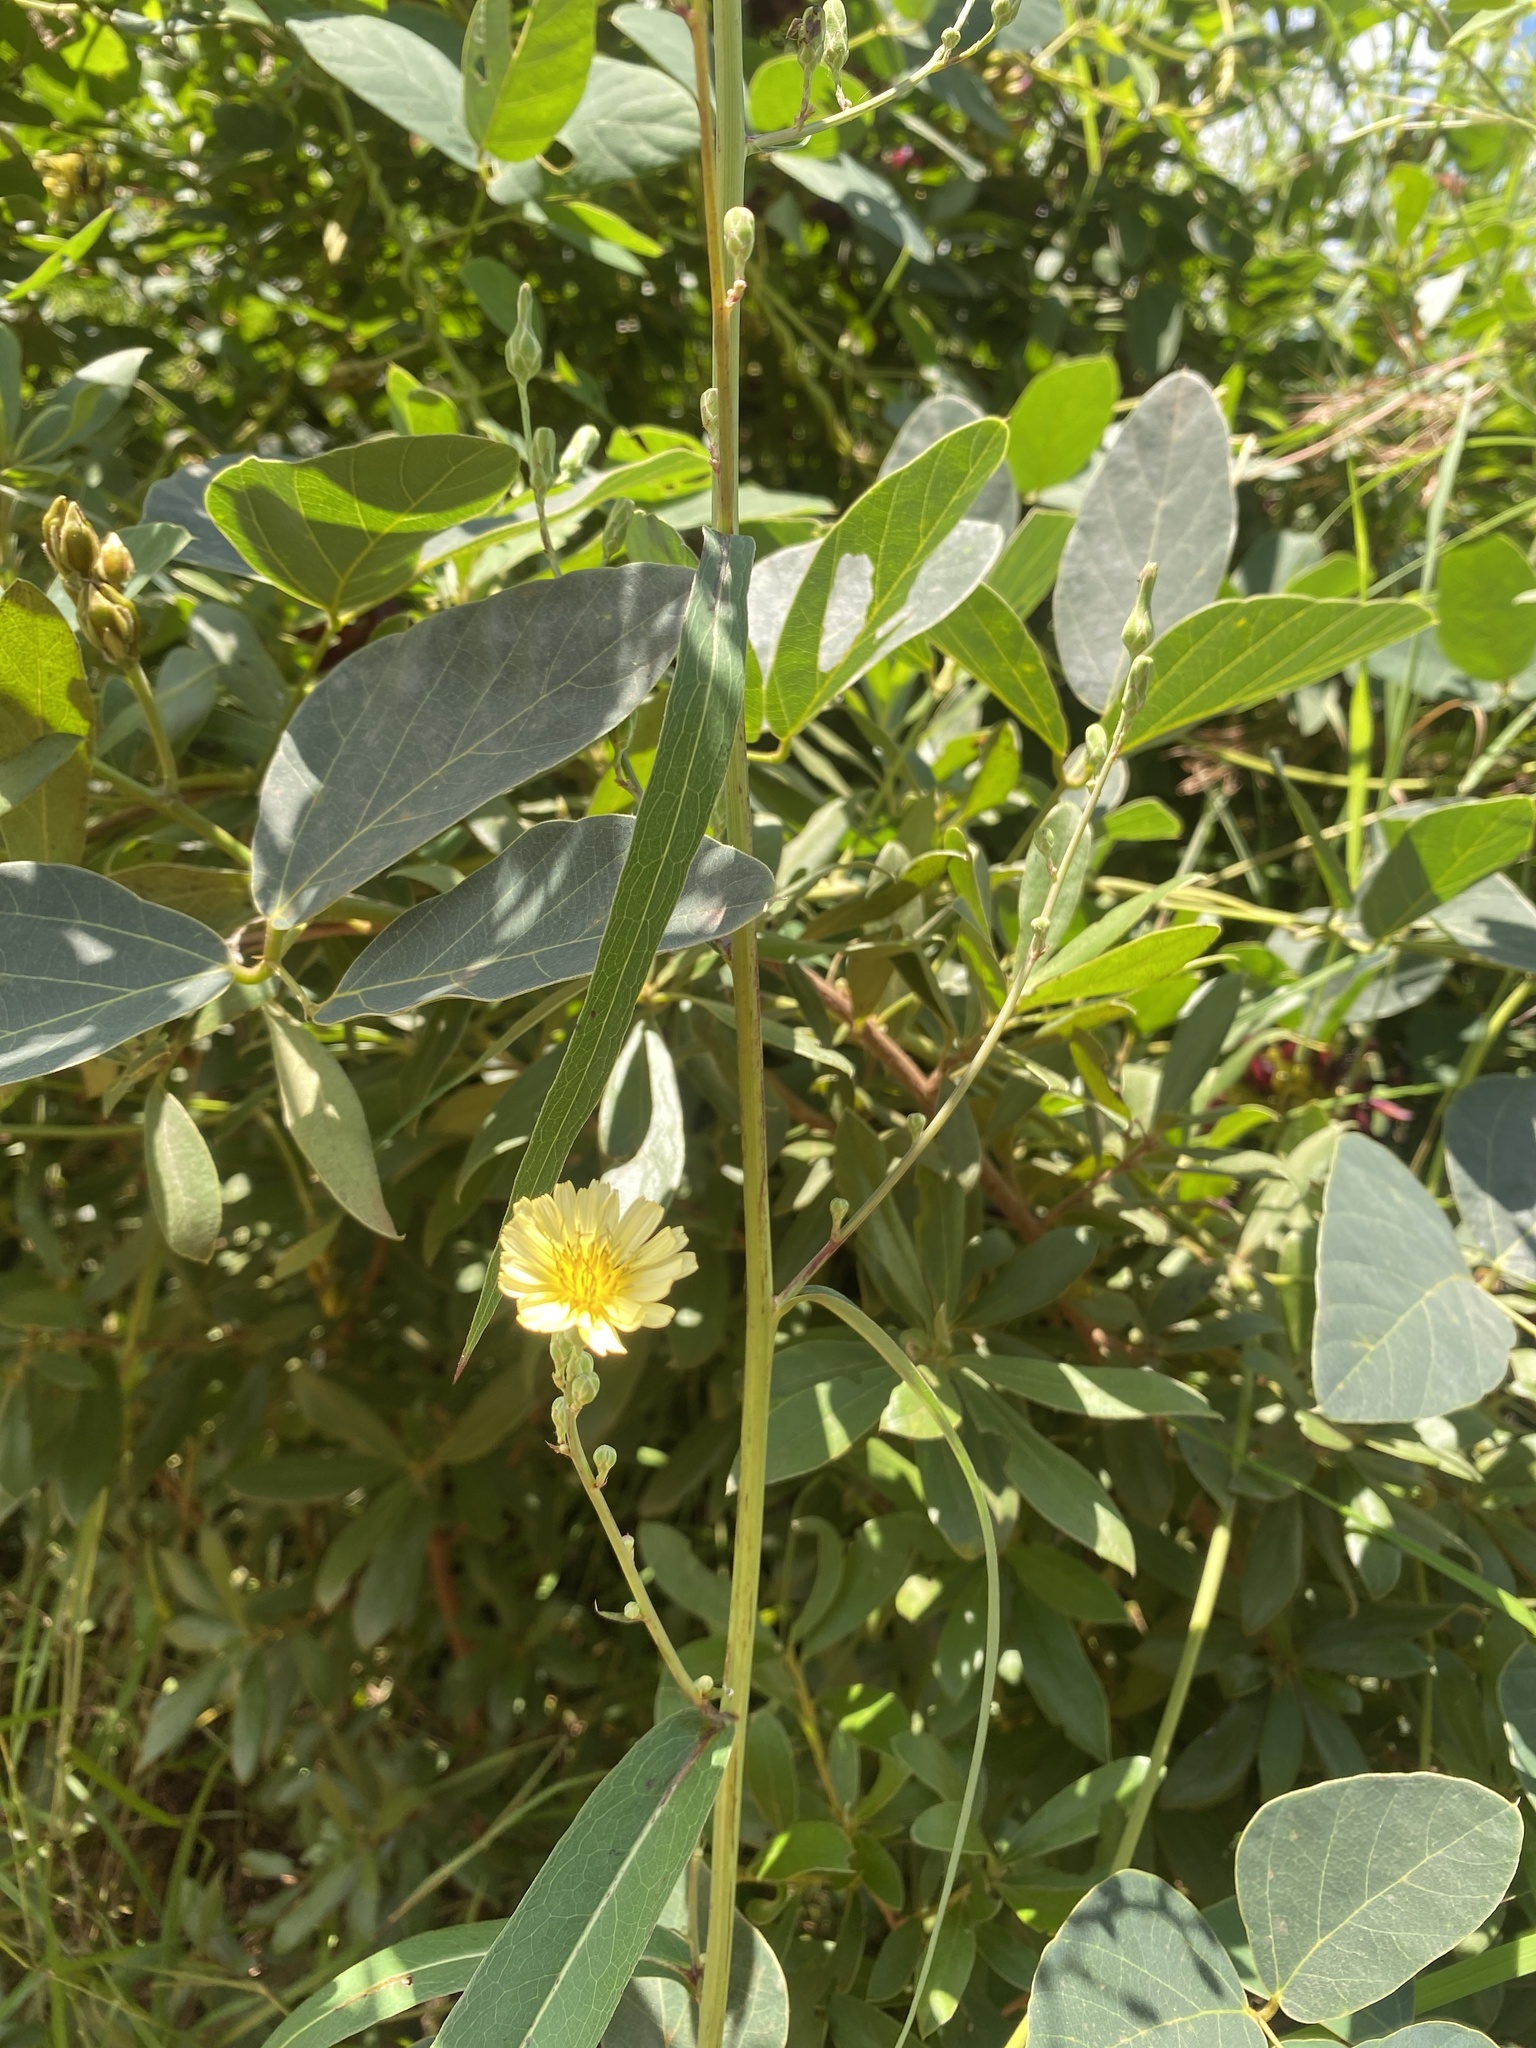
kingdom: Plantae
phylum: Tracheophyta
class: Magnoliopsida
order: Asterales
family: Asteraceae
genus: Lactuca
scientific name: Lactuca indica
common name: Wild lettuce
